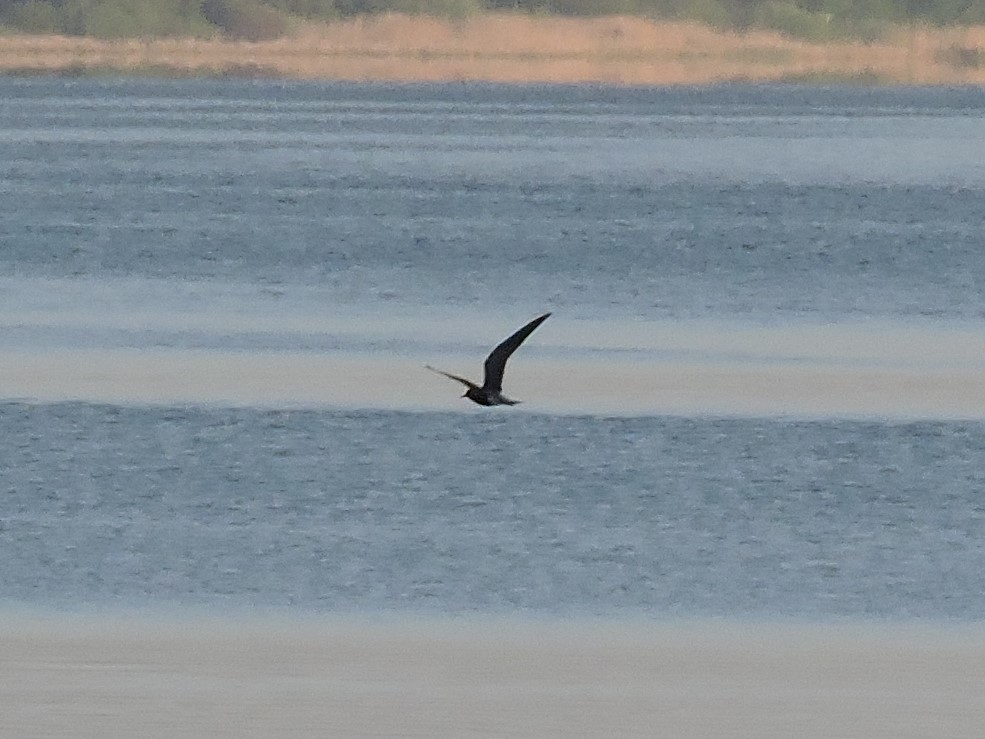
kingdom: Animalia
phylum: Chordata
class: Aves
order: Charadriiformes
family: Laridae
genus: Chlidonias
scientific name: Chlidonias niger
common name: Black tern
